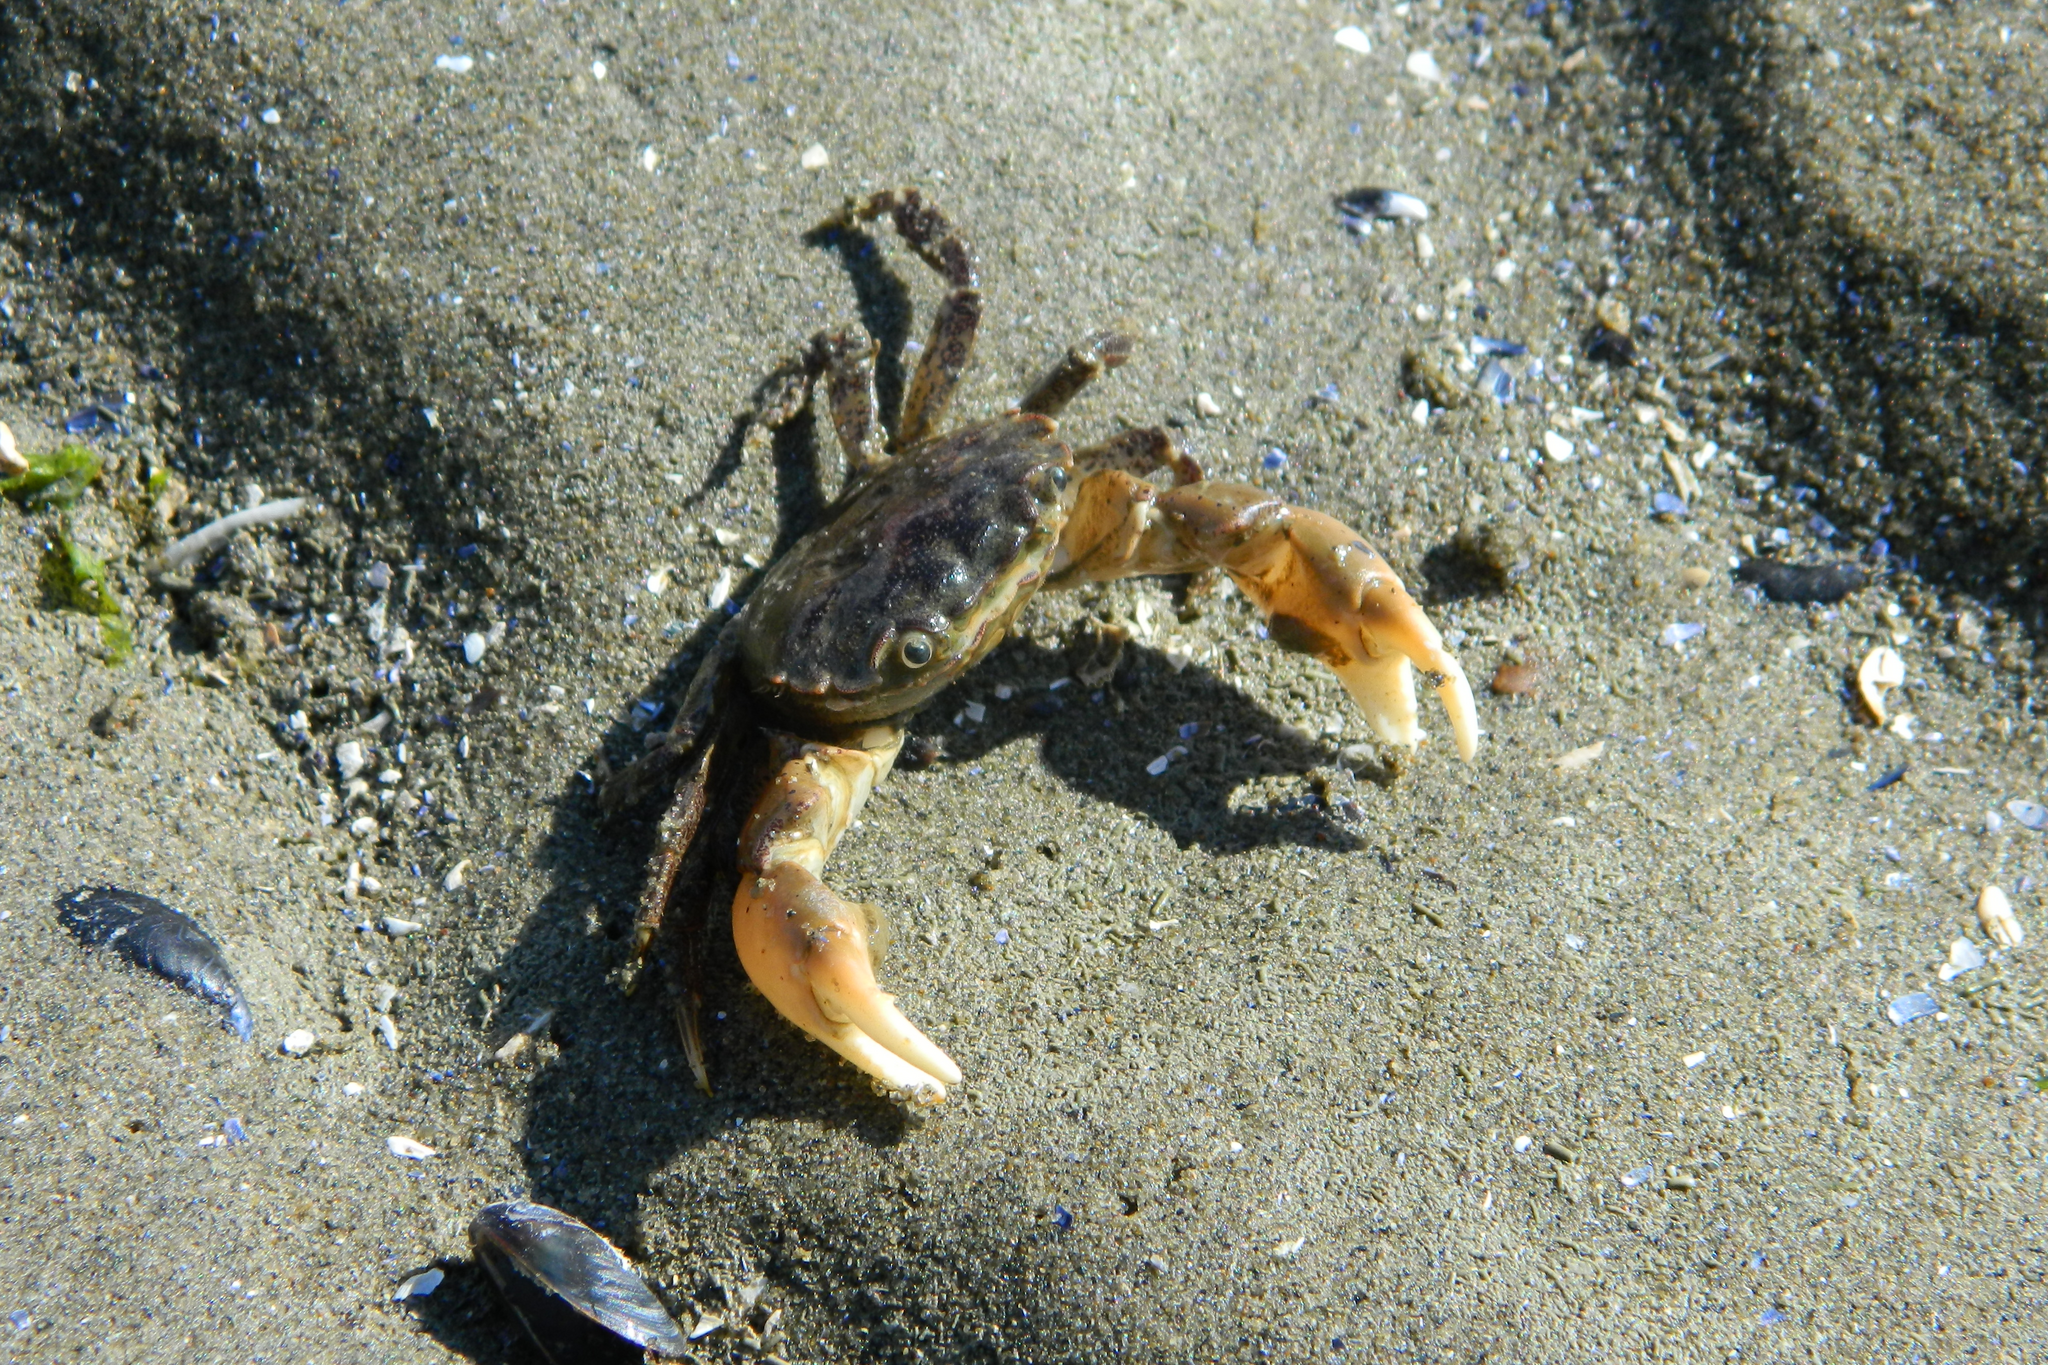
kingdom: Animalia
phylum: Arthropoda
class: Malacostraca
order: Decapoda
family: Varunidae
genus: Hemigrapsus
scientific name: Hemigrapsus oregonensis
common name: Yellow shore crab
